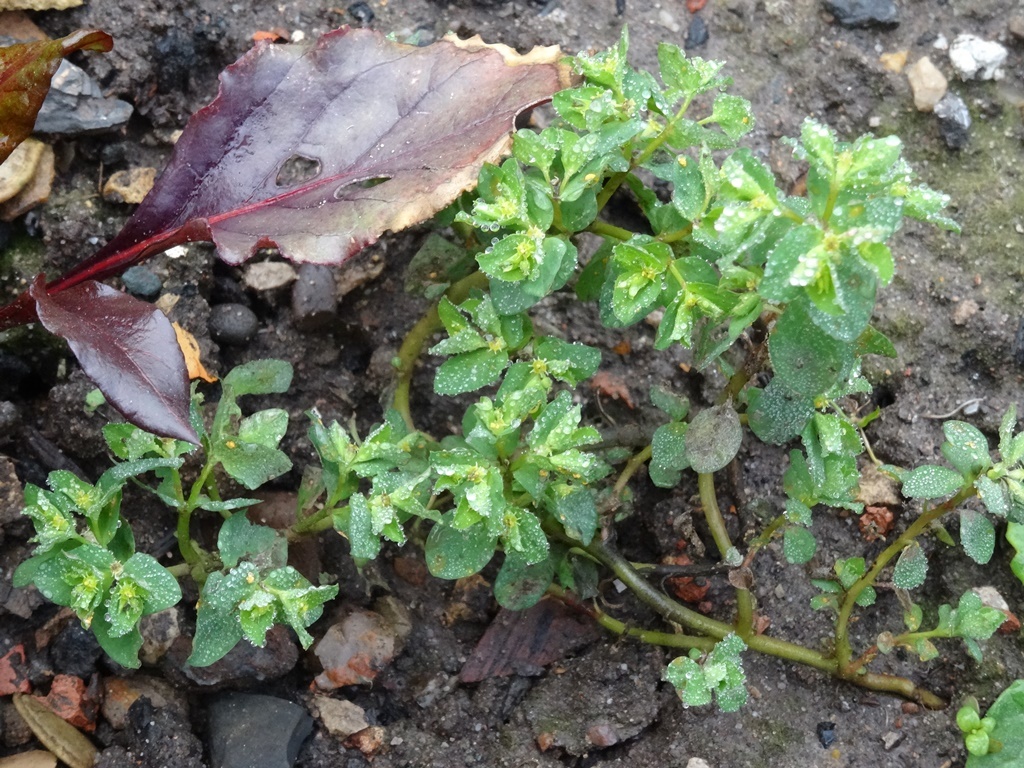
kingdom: Plantae
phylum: Tracheophyta
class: Magnoliopsida
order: Malpighiales
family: Euphorbiaceae
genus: Euphorbia
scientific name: Euphorbia peplus
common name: Petty spurge
